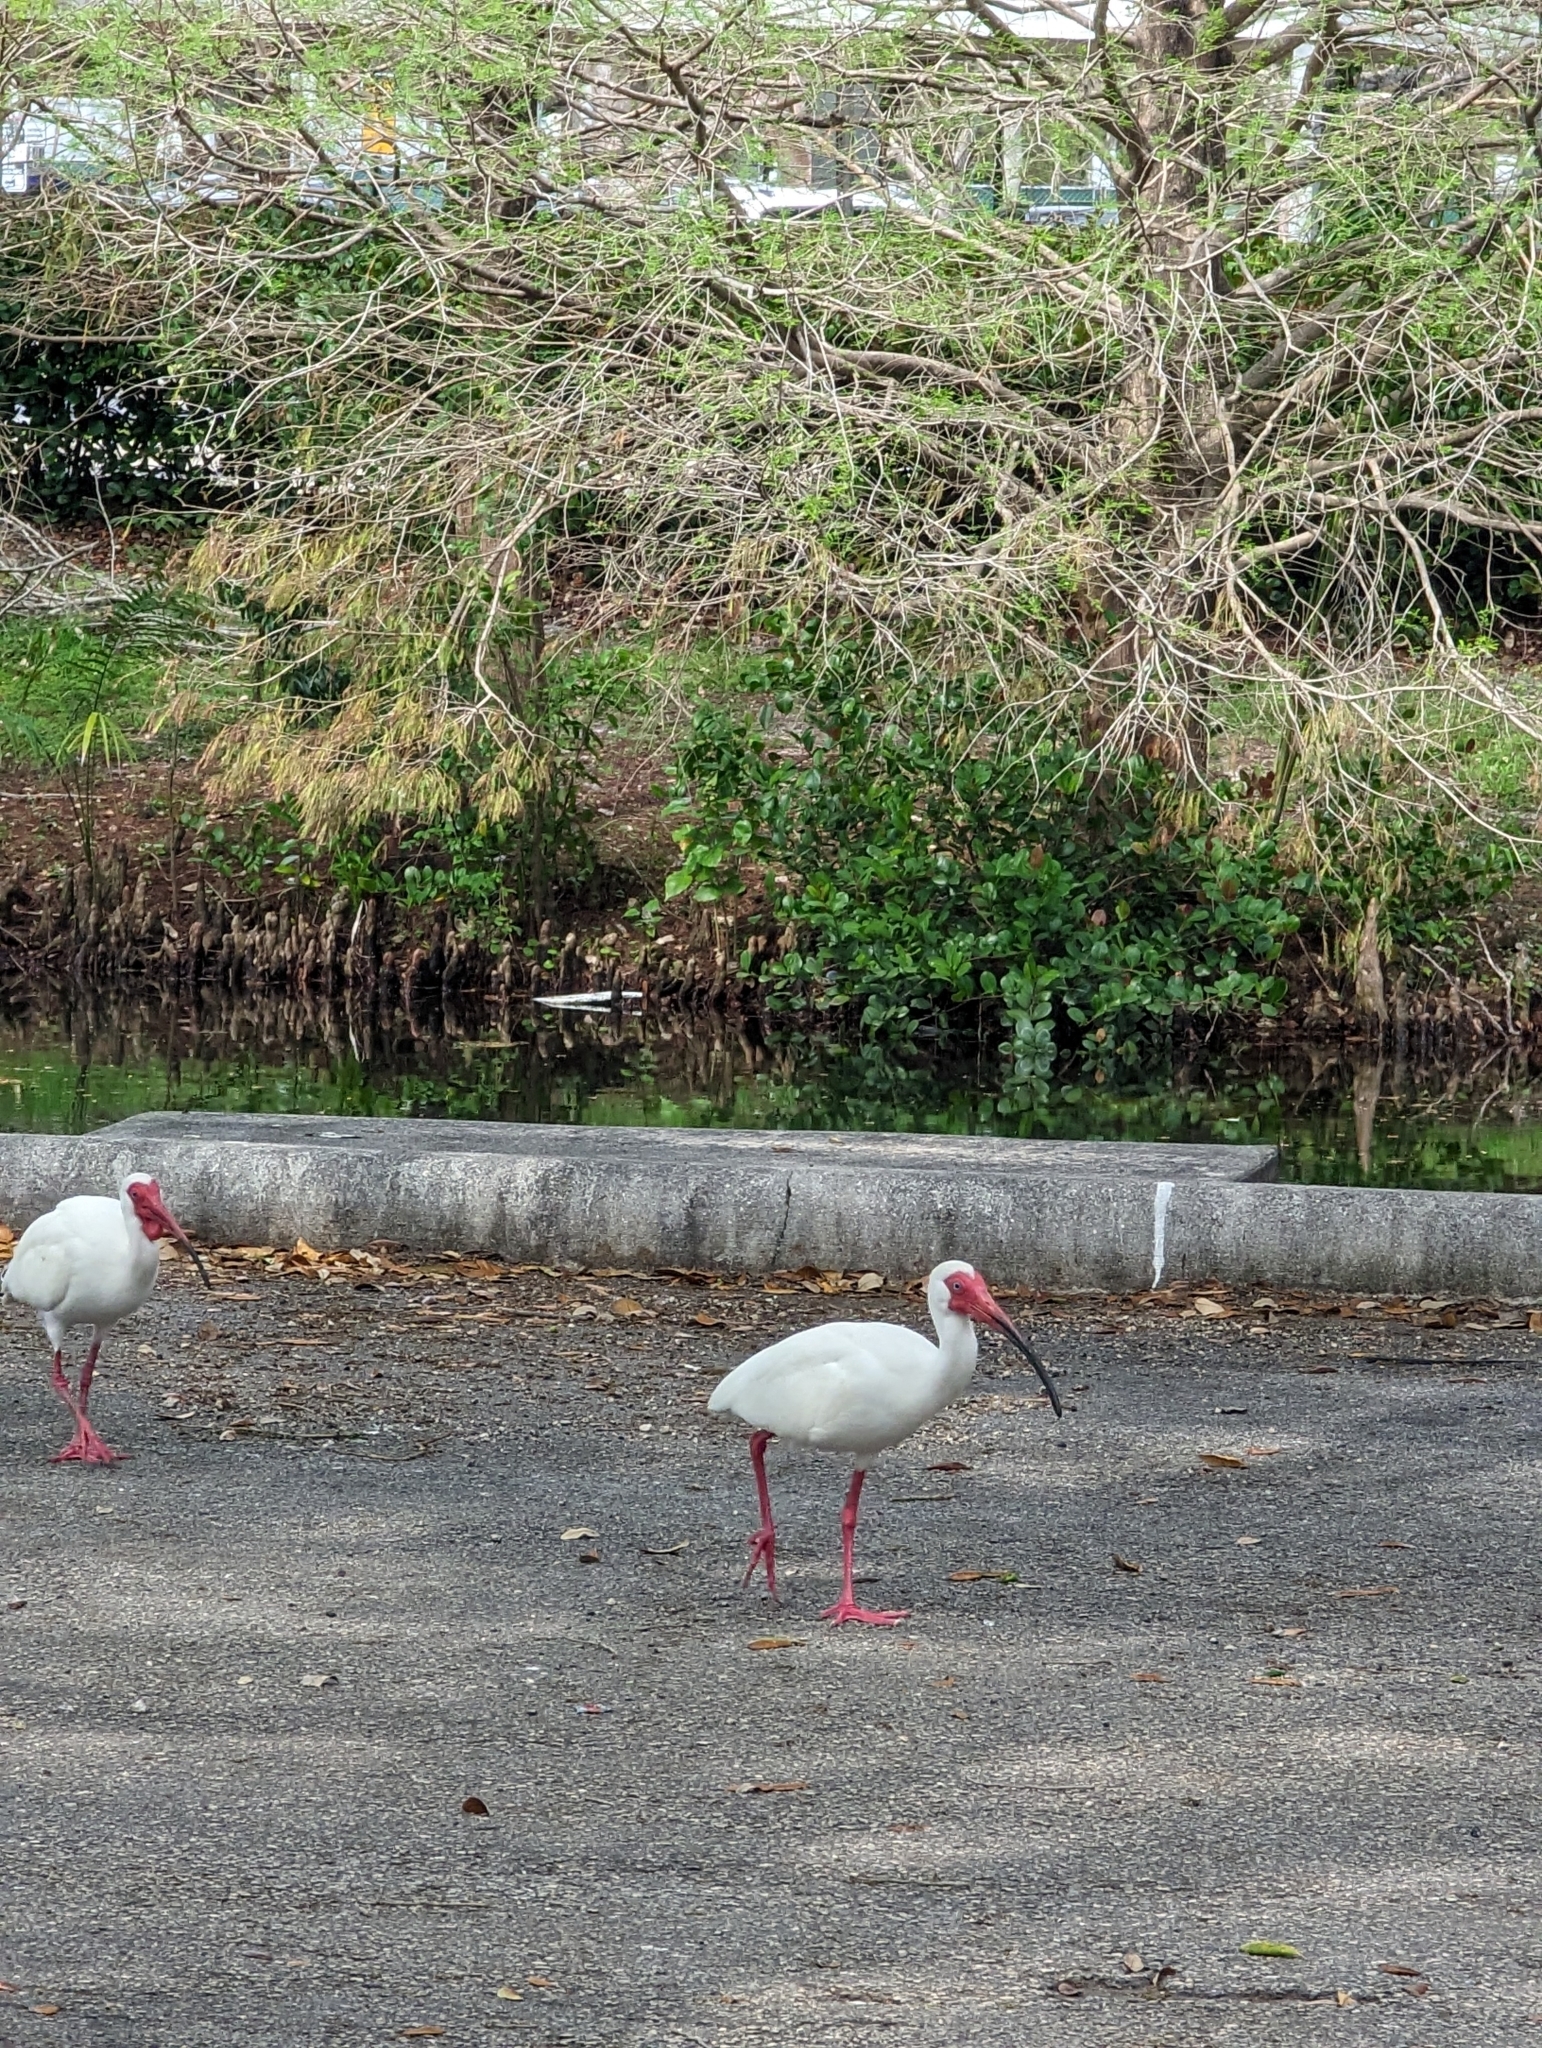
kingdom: Animalia
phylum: Chordata
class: Aves
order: Pelecaniformes
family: Threskiornithidae
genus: Eudocimus
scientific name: Eudocimus albus
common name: White ibis
